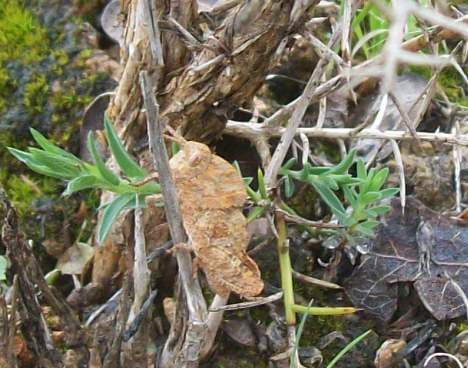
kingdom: Animalia
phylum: Arthropoda
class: Insecta
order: Orthoptera
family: Pamphagidae
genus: Ocnerodes
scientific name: Ocnerodes fallaciosus
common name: Misleading stone grasshopper
